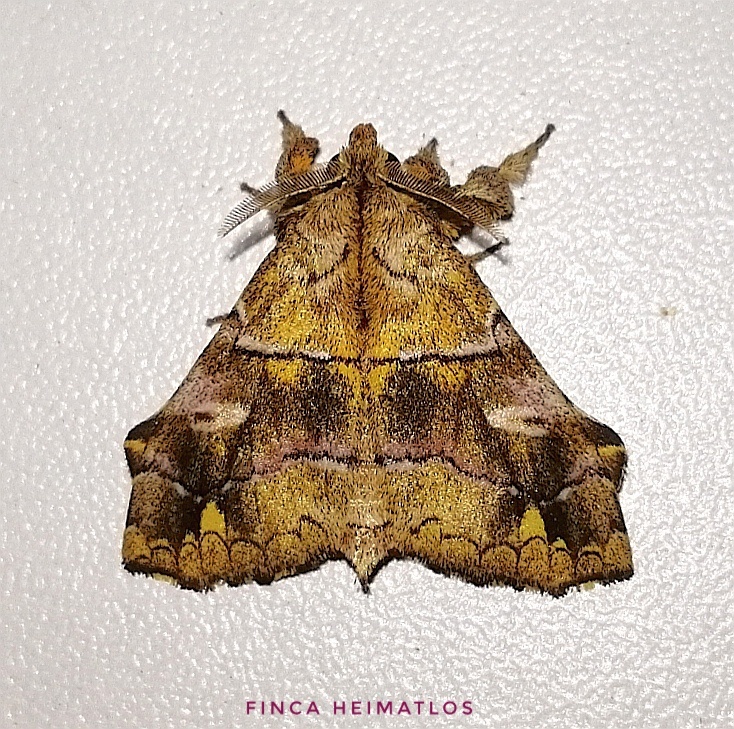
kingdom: Animalia
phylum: Arthropoda
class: Insecta
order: Lepidoptera
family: Apatelodidae
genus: Zanola
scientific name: Zanola verago
